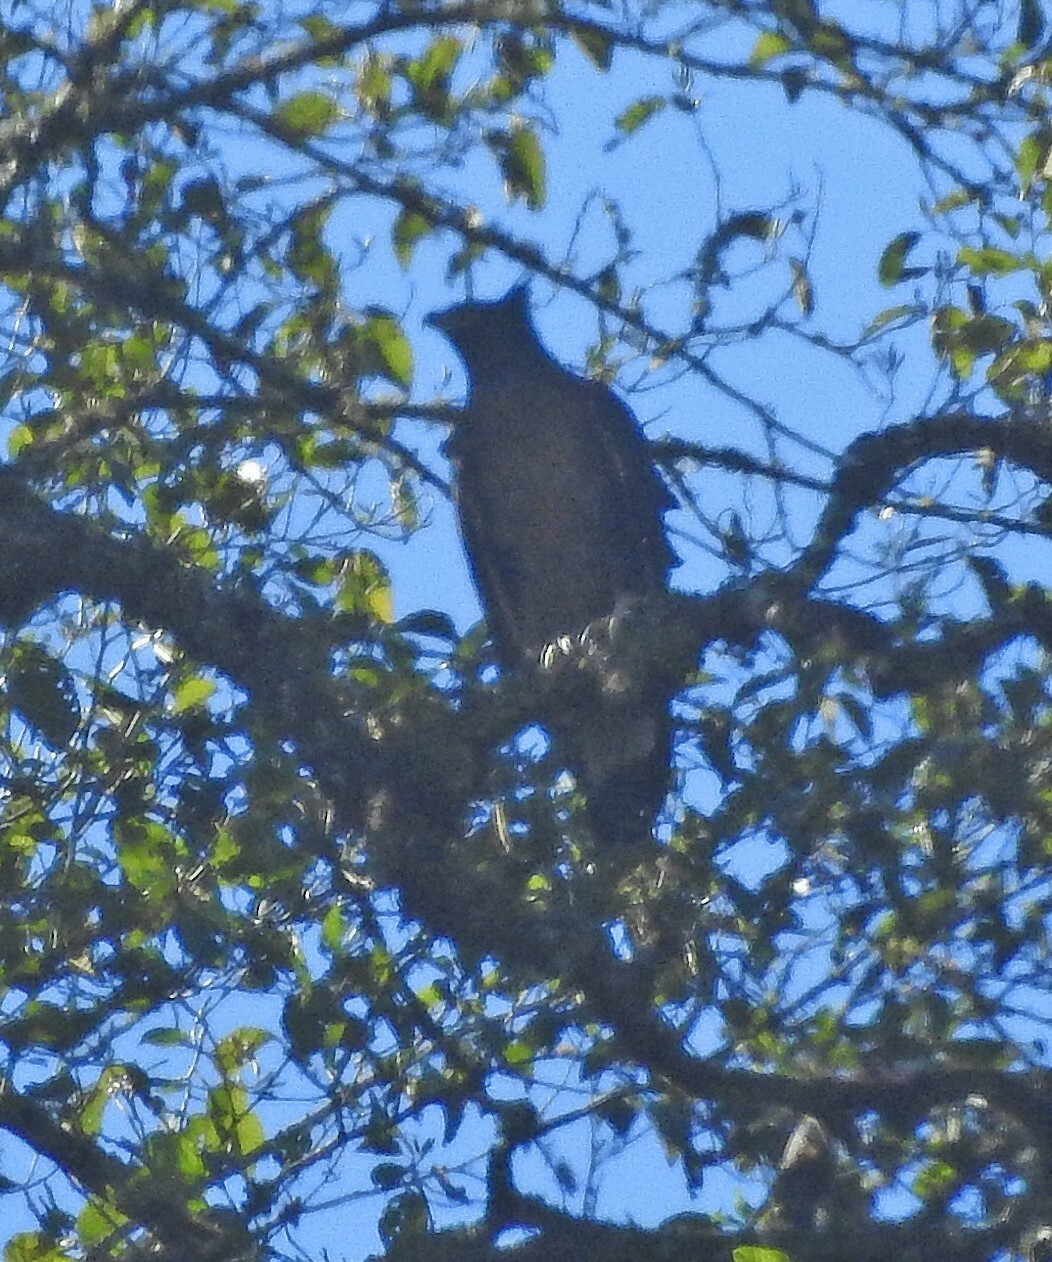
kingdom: Animalia
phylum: Chordata
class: Aves
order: Accipitriformes
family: Accipitridae
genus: Spizaetus
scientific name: Spizaetus isidori
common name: Black-and-chestnut eagle
